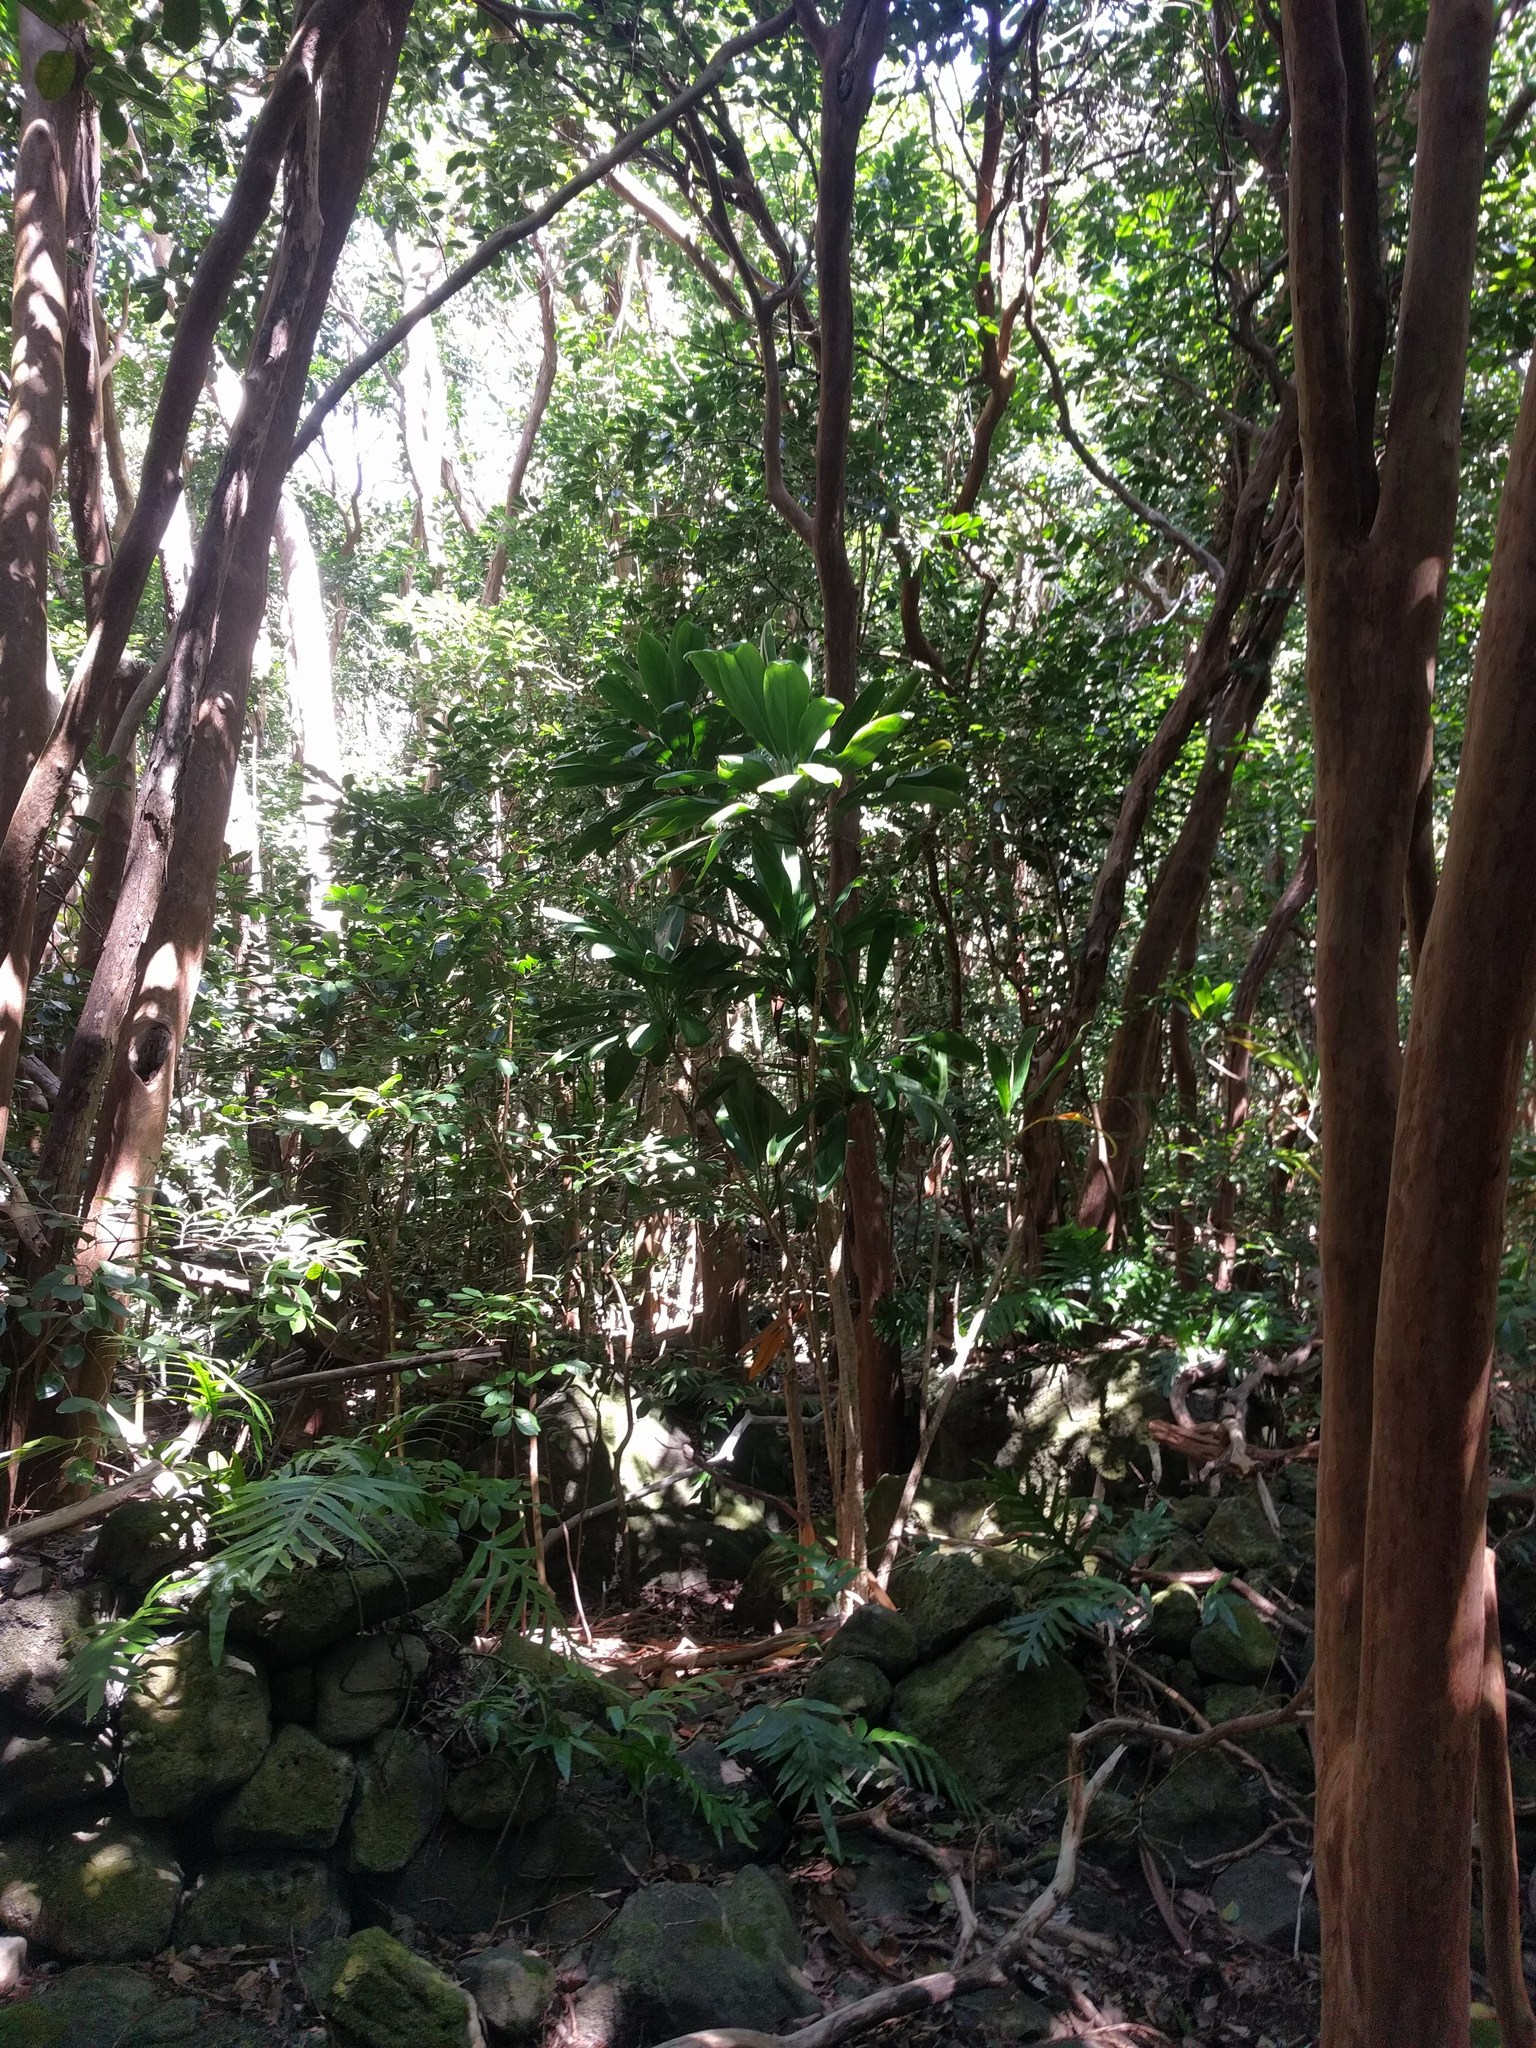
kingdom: Plantae
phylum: Tracheophyta
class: Liliopsida
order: Asparagales
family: Asparagaceae
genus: Cordyline
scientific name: Cordyline fruticosa
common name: Good-luck-plant
